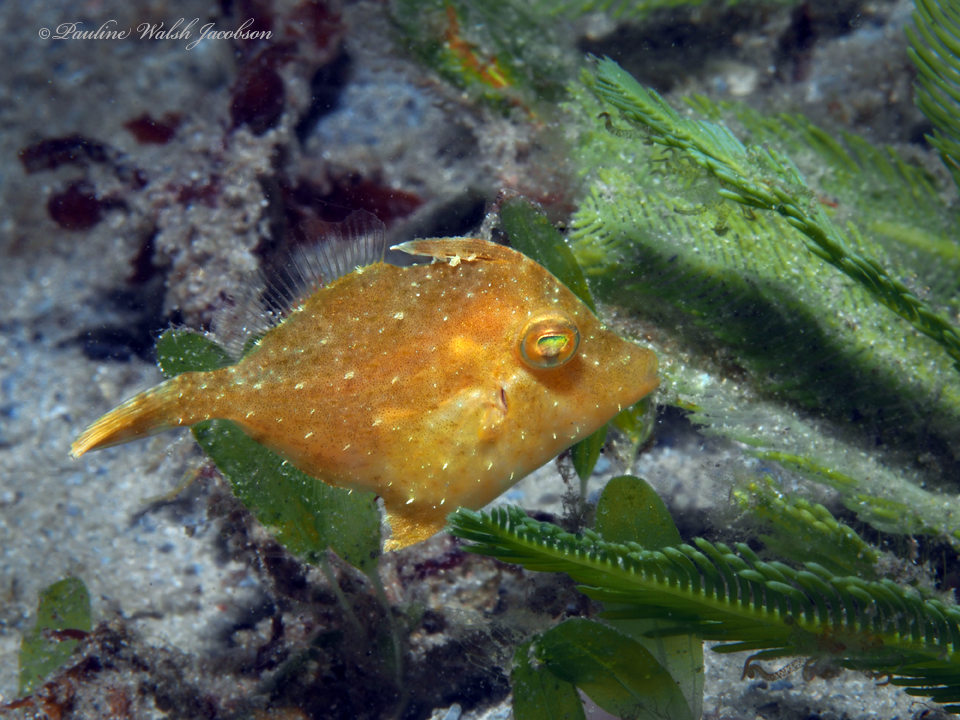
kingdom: Animalia
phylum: Chordata
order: Tetraodontiformes
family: Monacanthidae
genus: Stephanolepis
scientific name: Stephanolepis hispidus
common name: Planehead filefish
